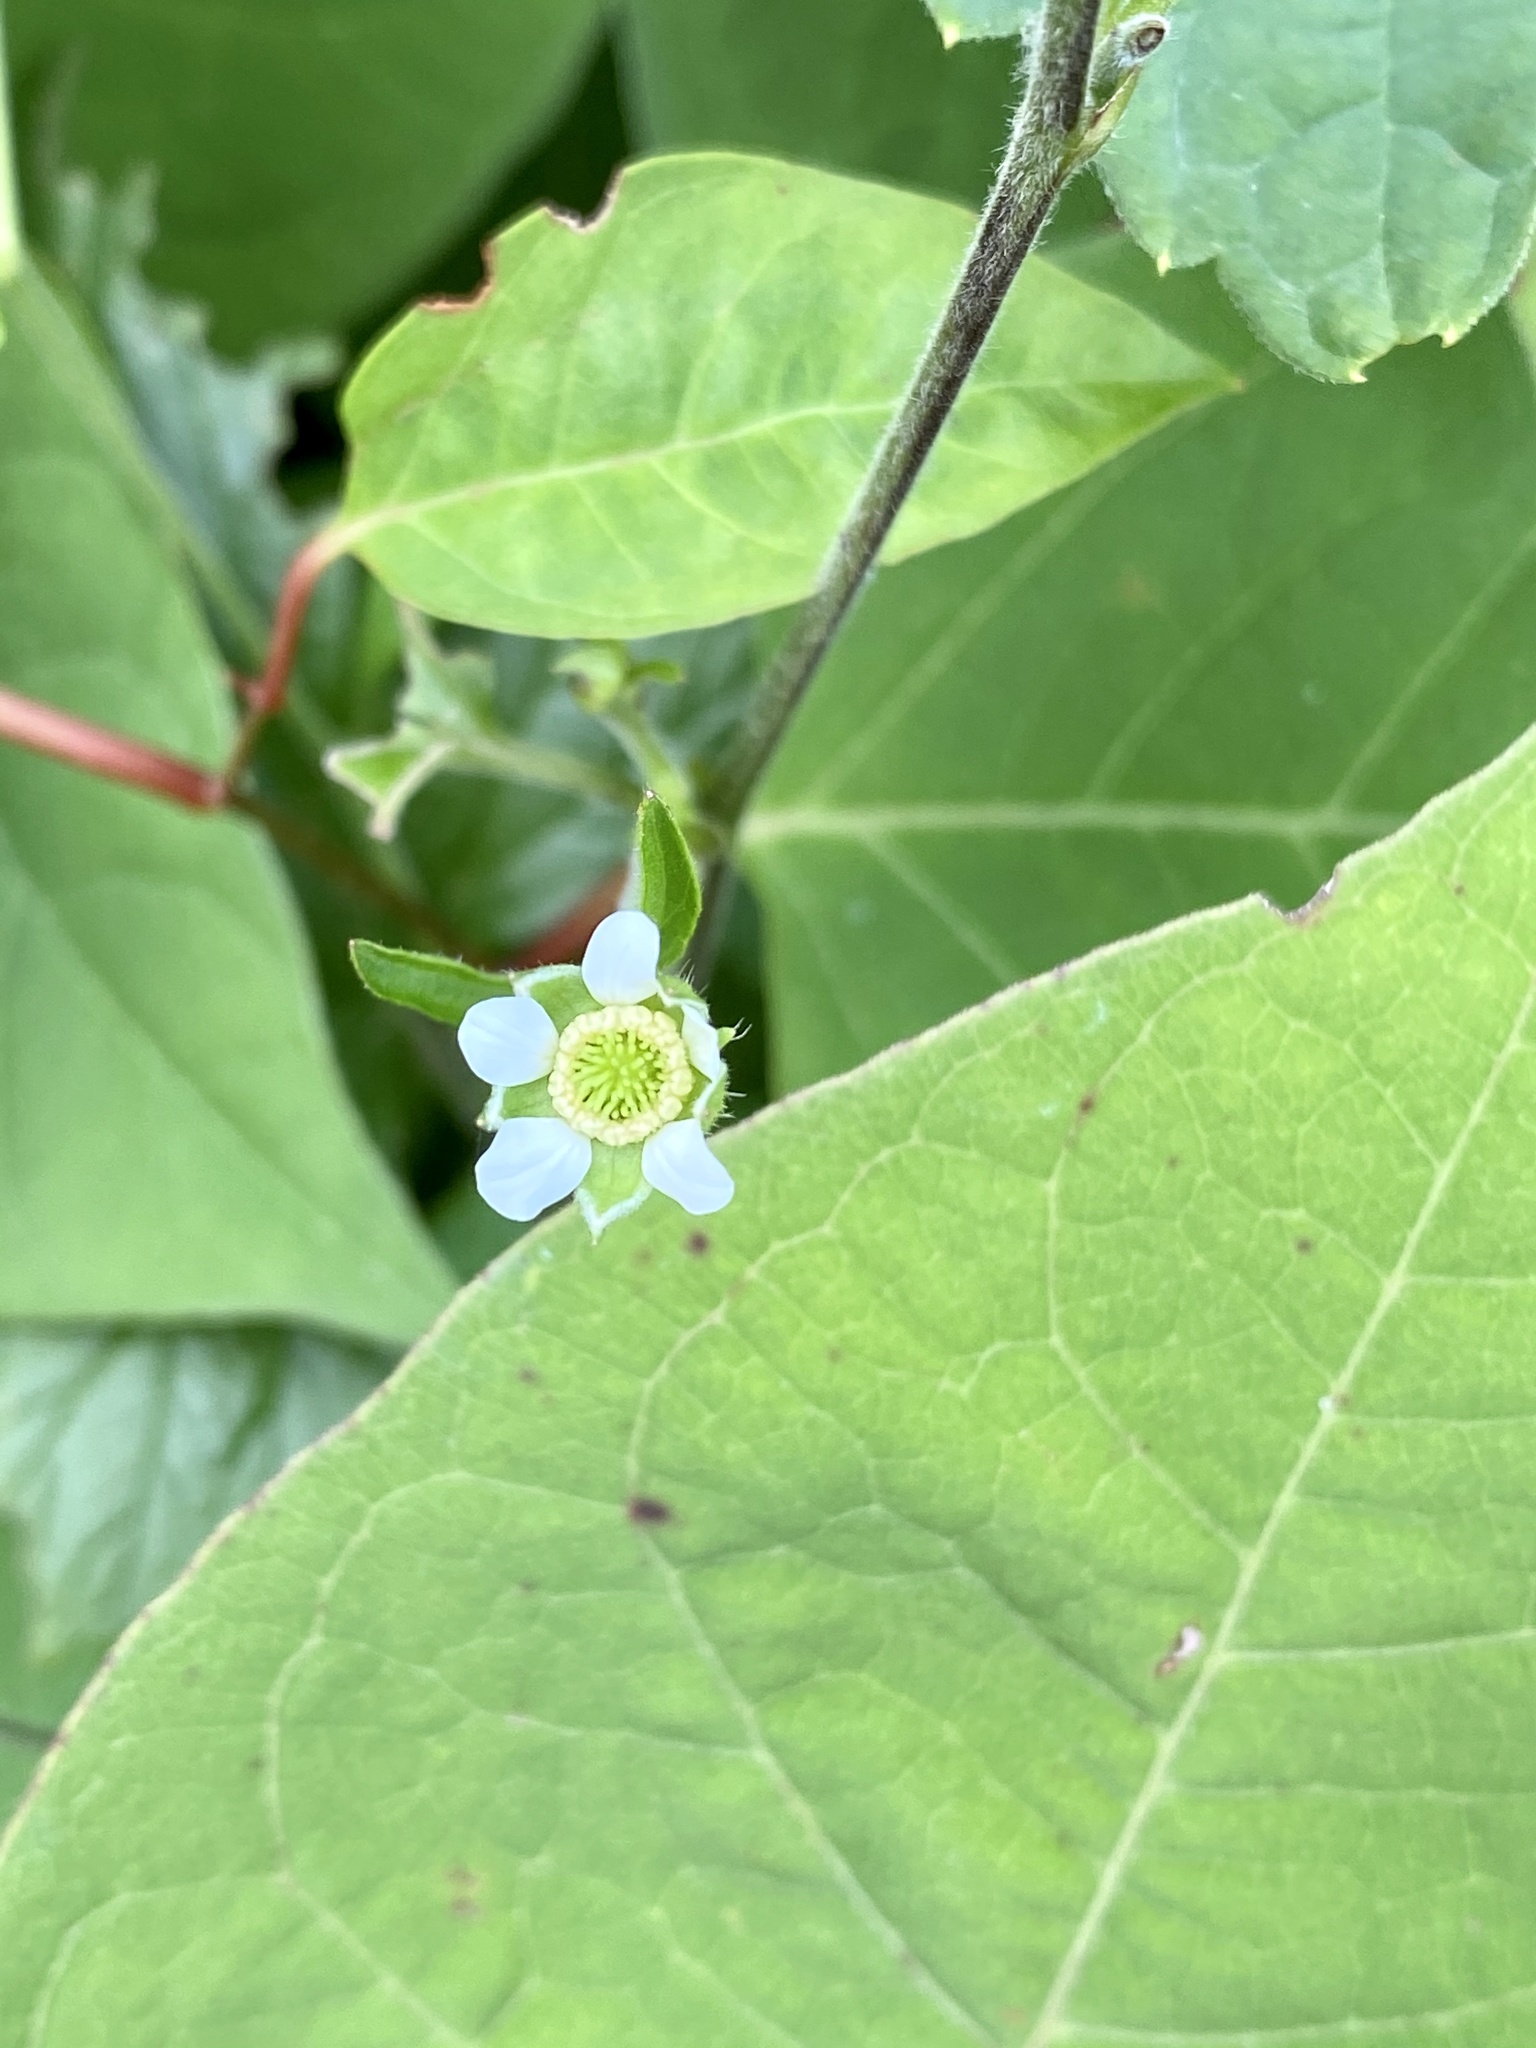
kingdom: Plantae
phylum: Tracheophyta
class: Magnoliopsida
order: Rosales
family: Rosaceae
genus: Geum
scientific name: Geum canadense
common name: White avens
